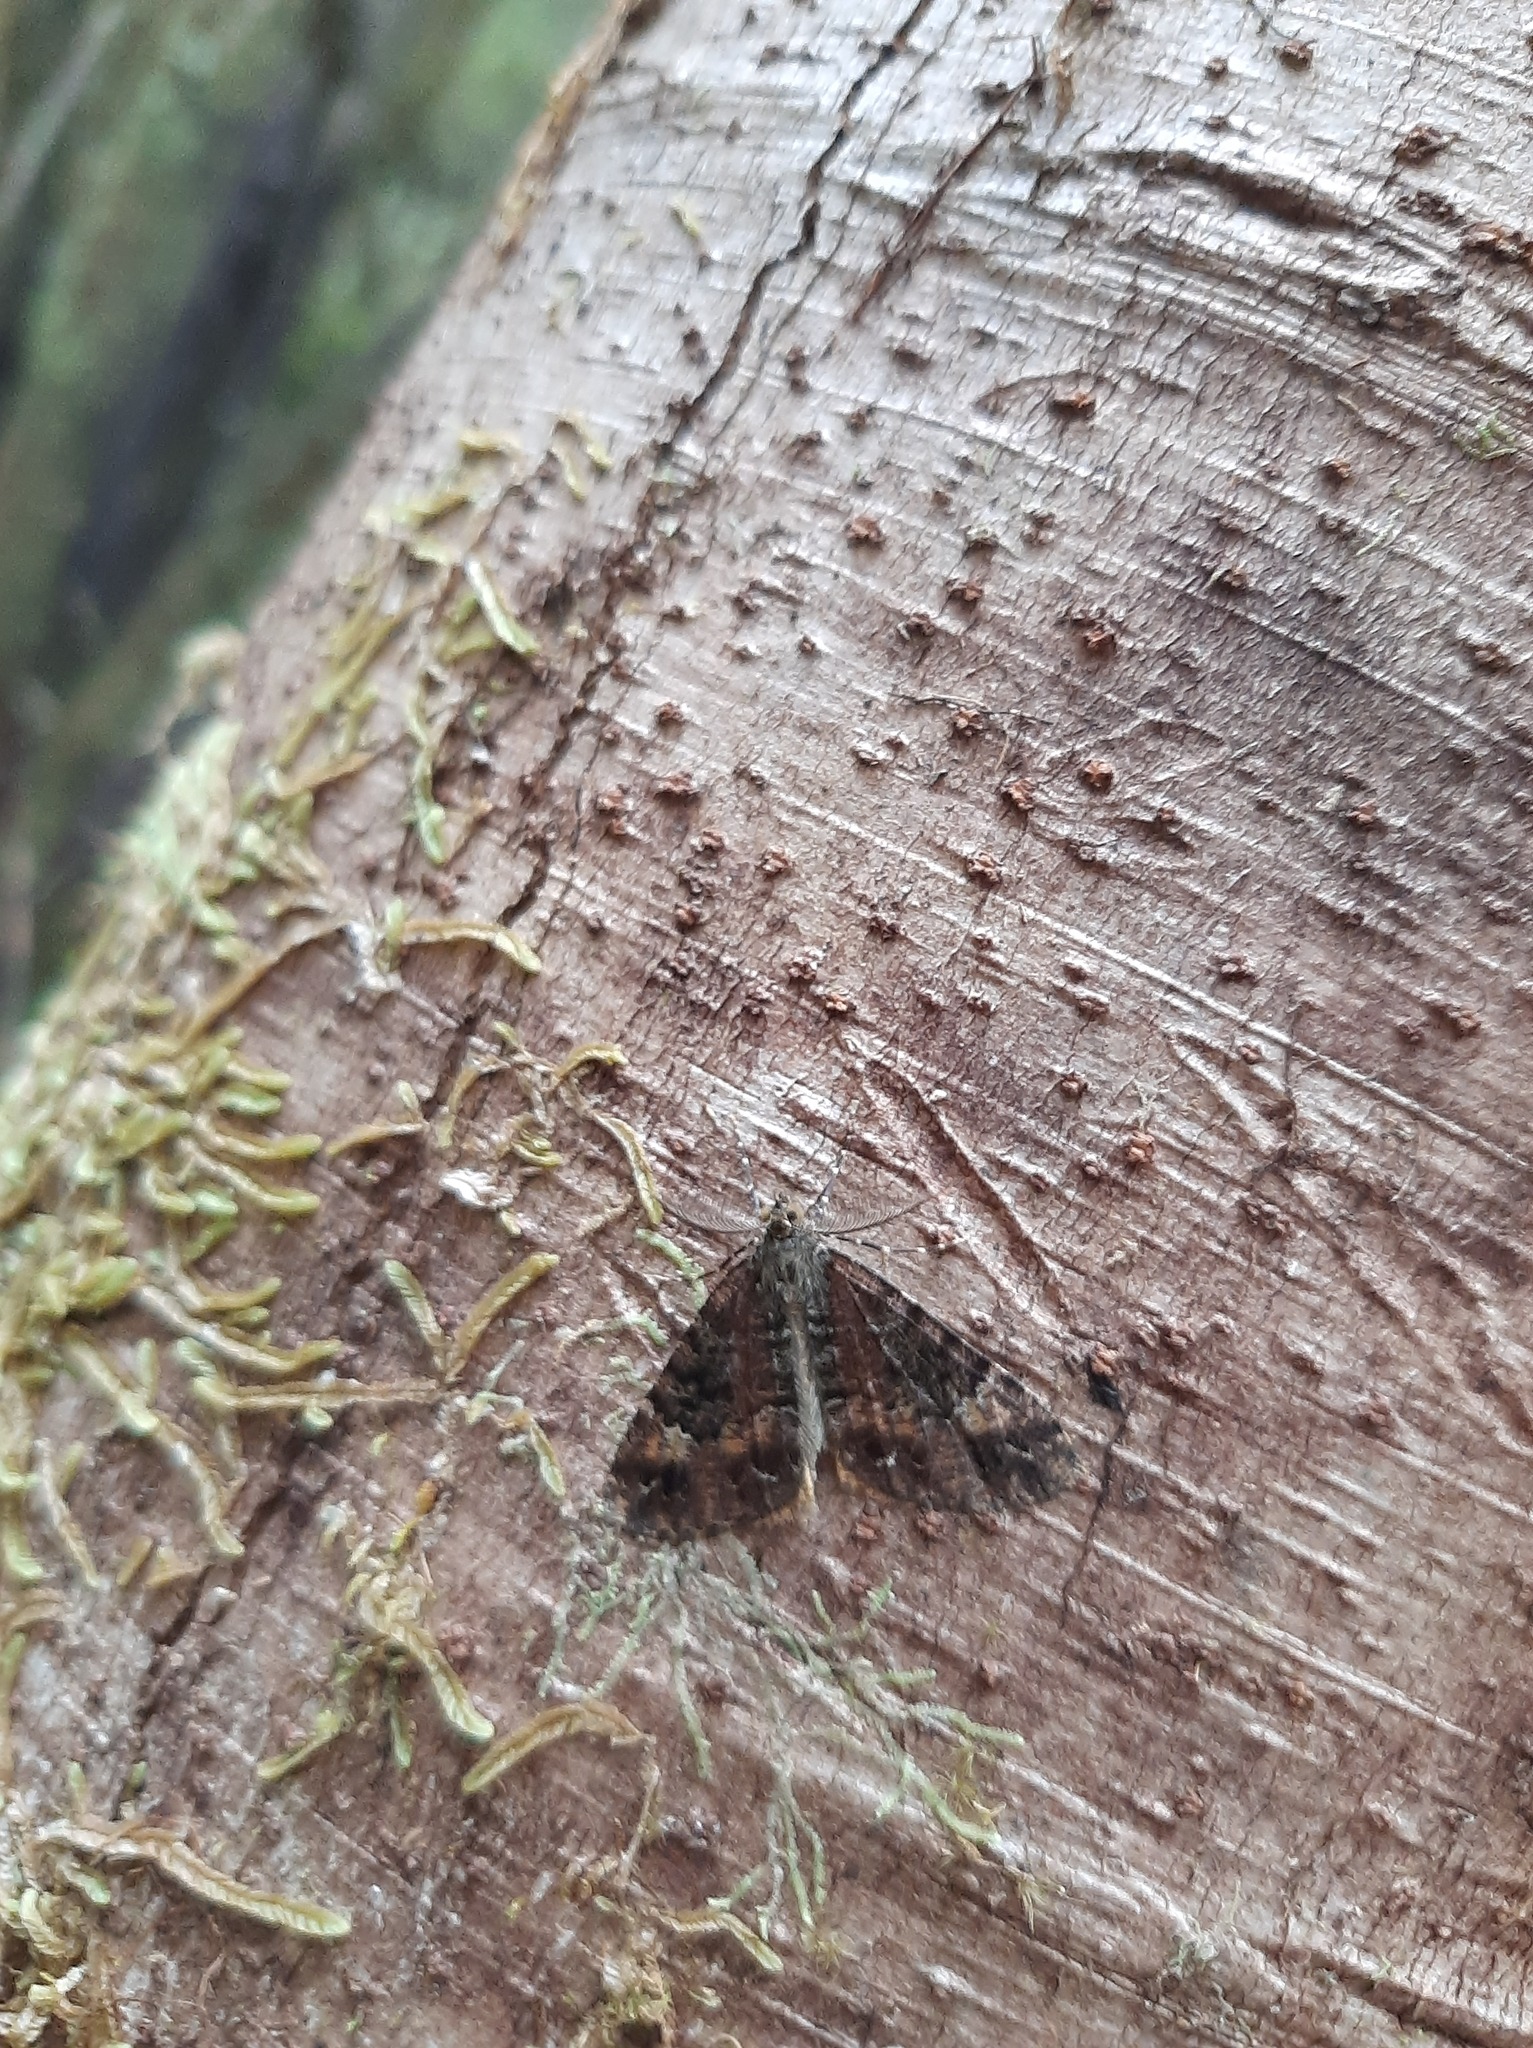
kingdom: Animalia
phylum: Arthropoda
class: Insecta
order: Lepidoptera
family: Geometridae
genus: Pseudocoremia
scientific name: Pseudocoremia productata
